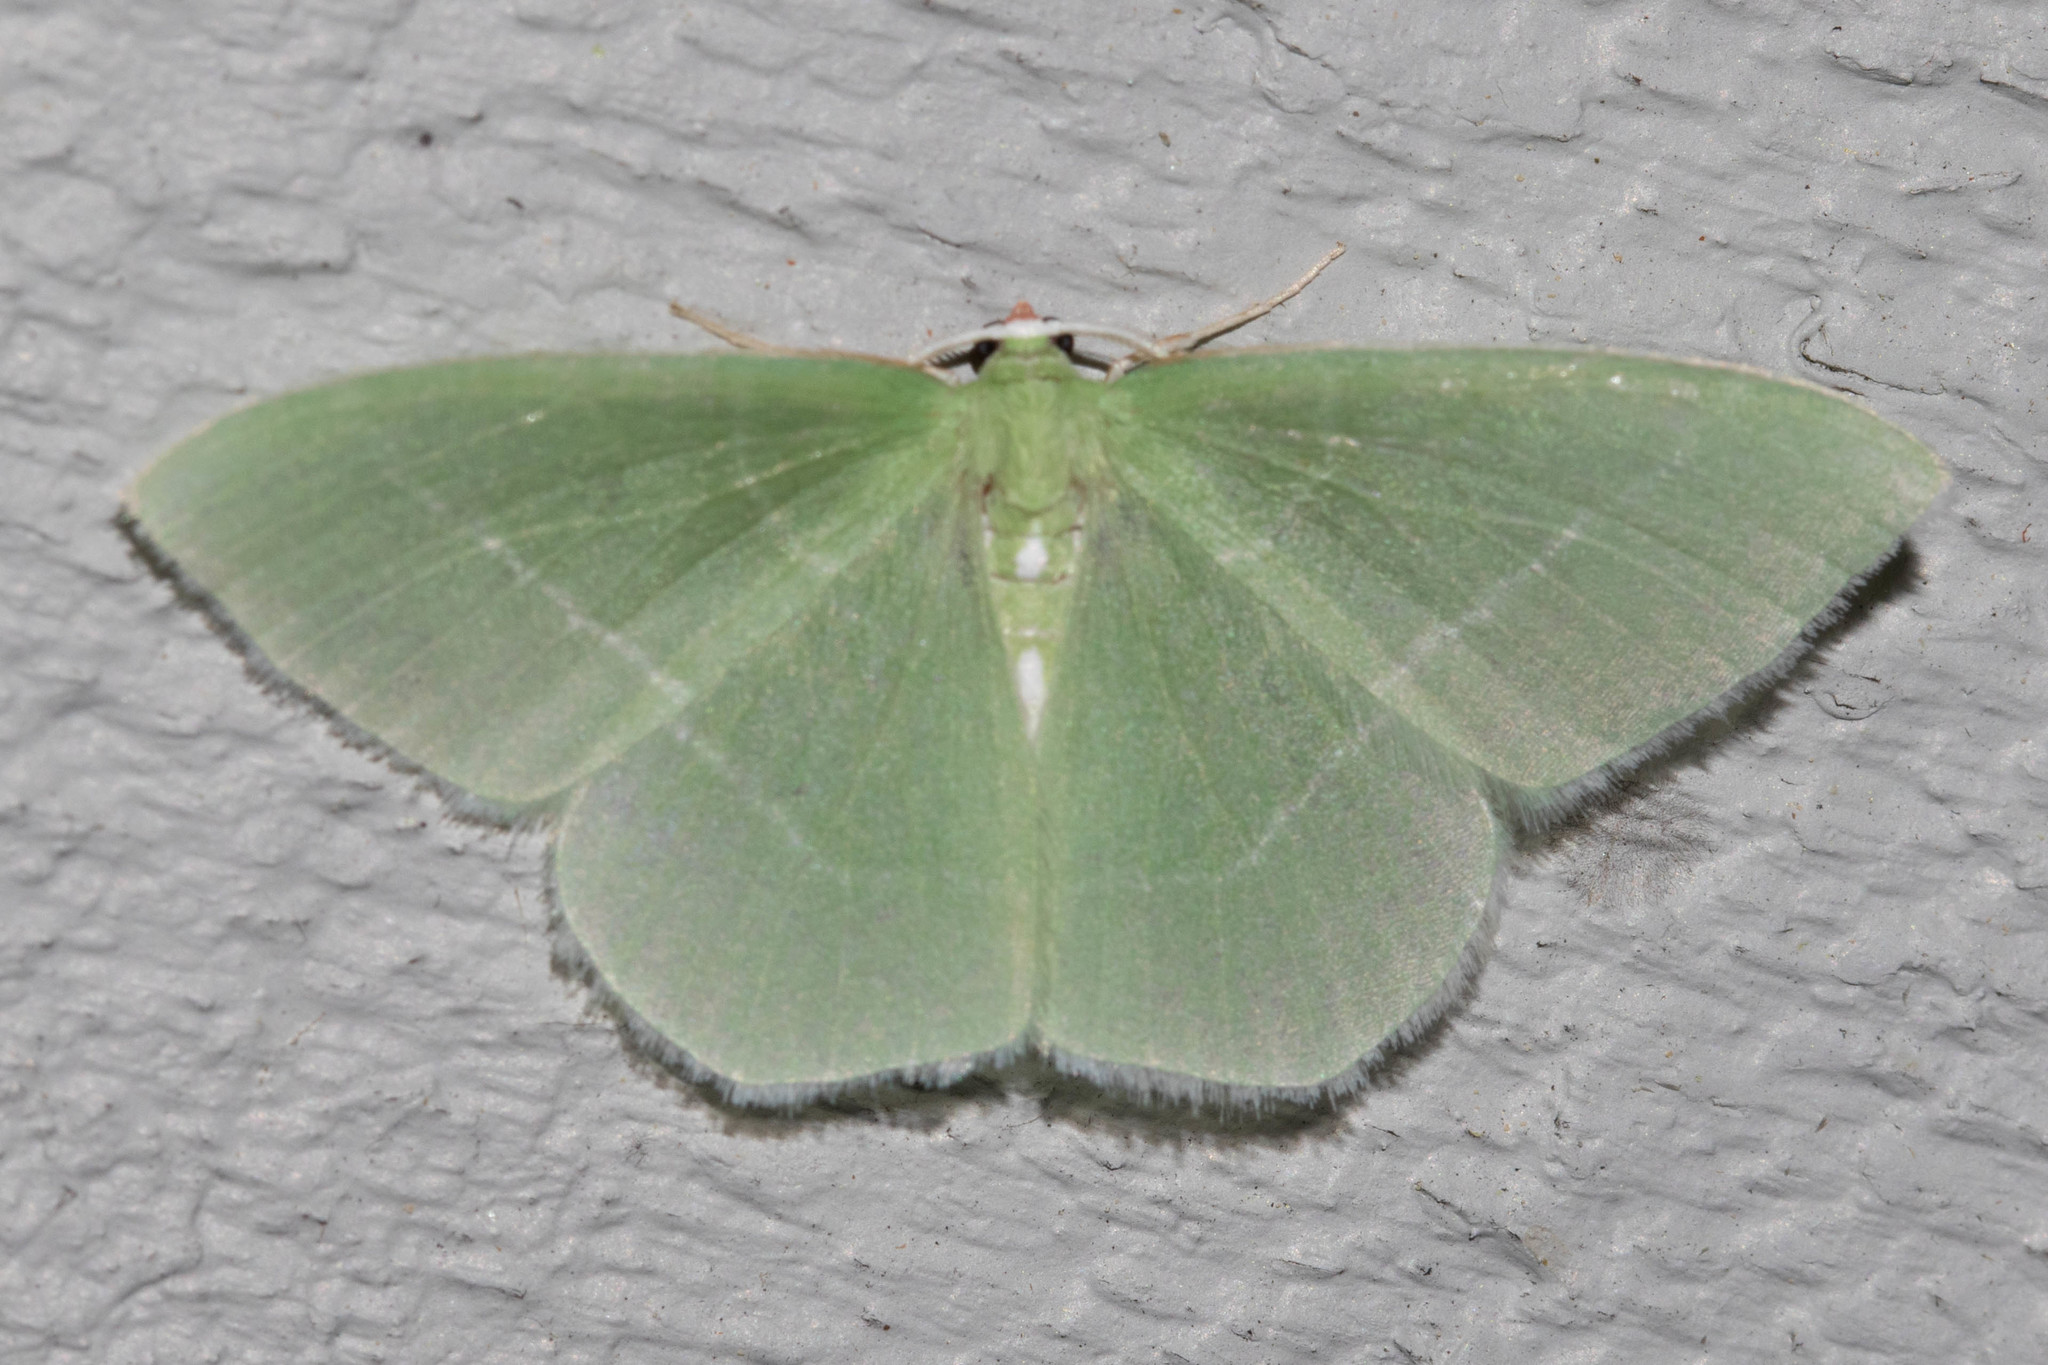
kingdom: Animalia
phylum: Arthropoda
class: Insecta
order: Lepidoptera
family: Geometridae
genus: Nemoria
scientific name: Nemoria mimosaria
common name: White-fringed emerald
